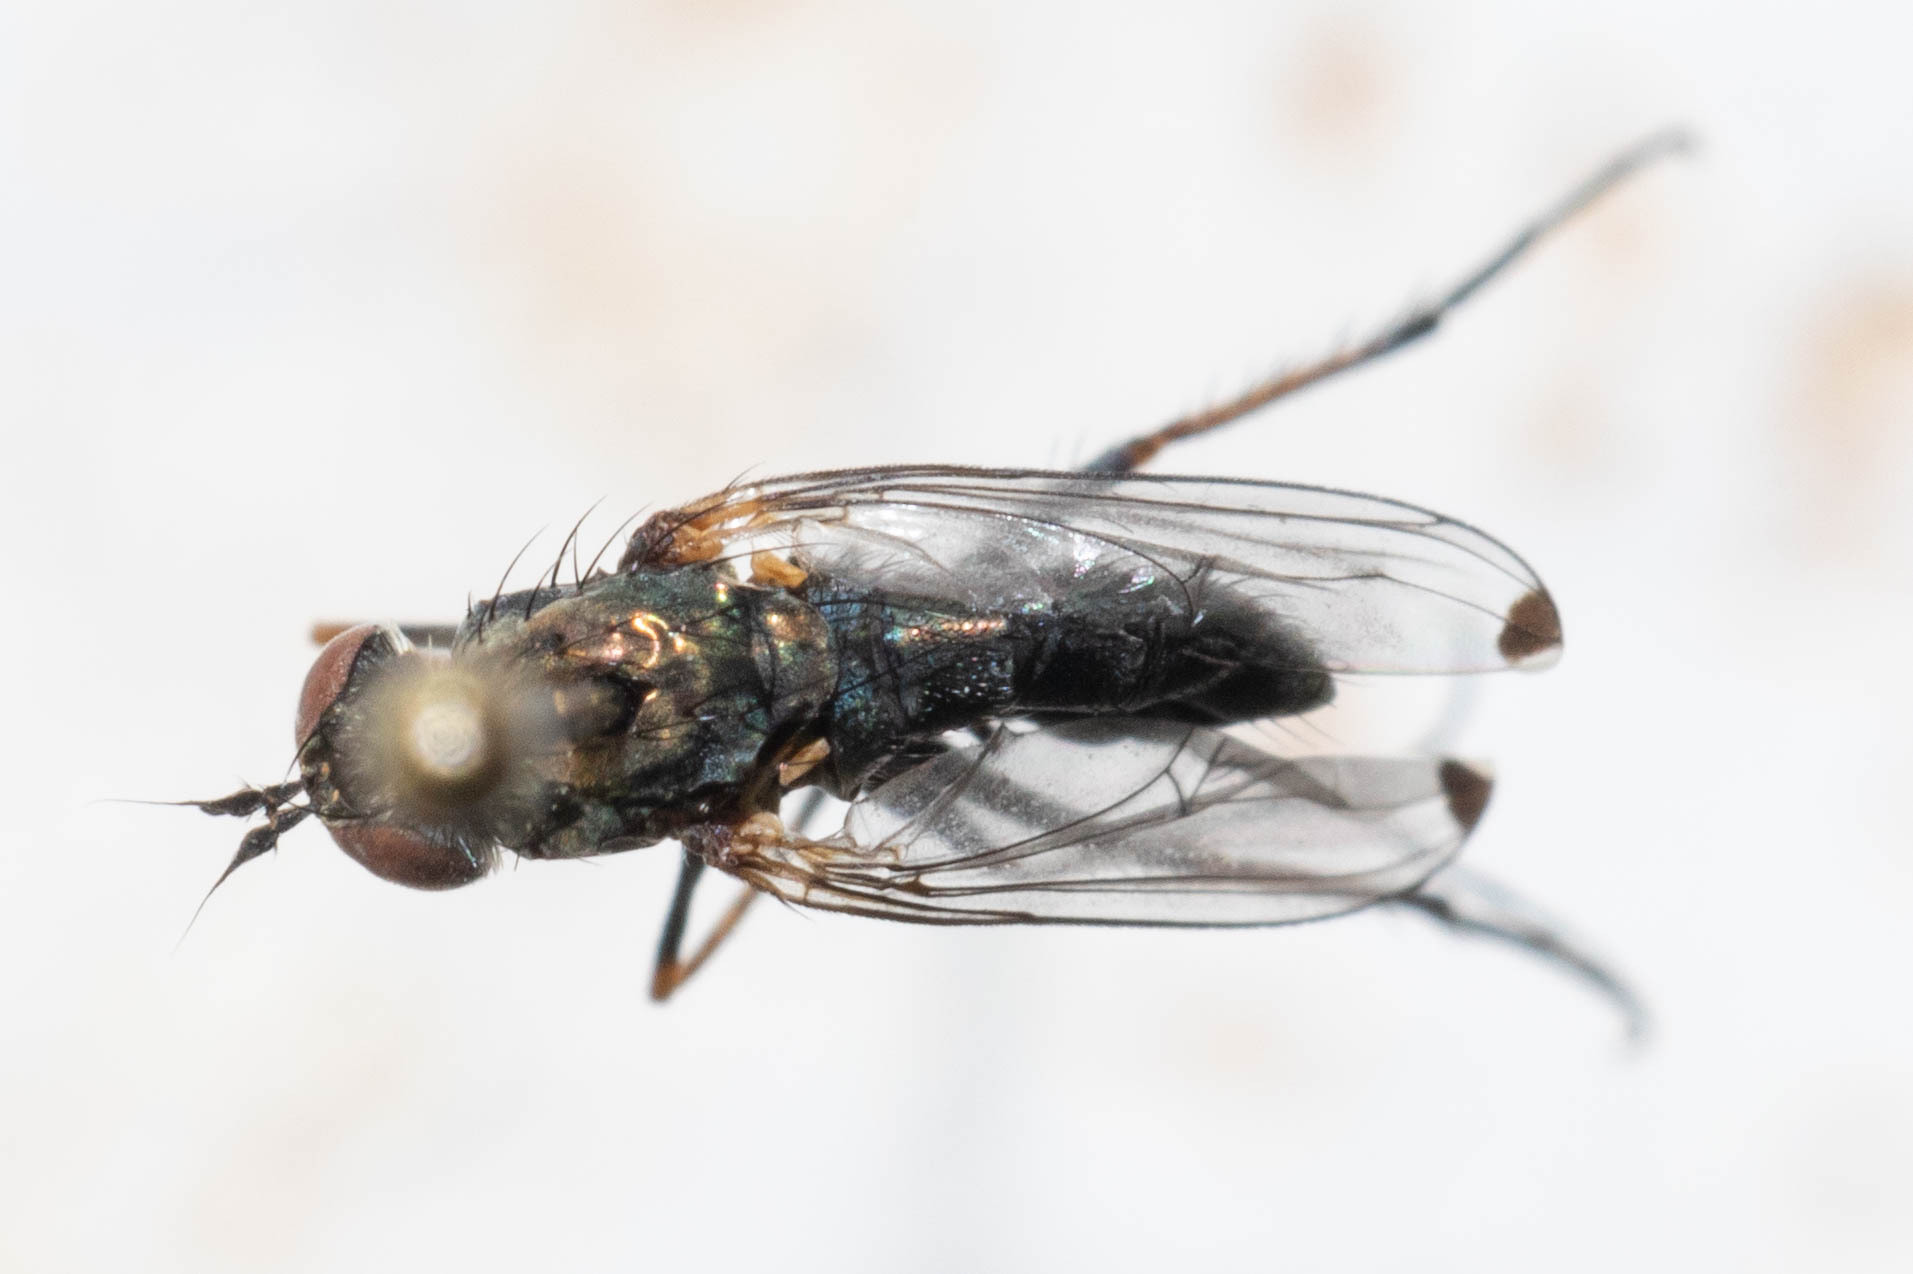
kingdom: Animalia
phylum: Arthropoda
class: Insecta
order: Diptera
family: Dolichopodidae
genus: Tachytrechus
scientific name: Tachytrechus vorax
